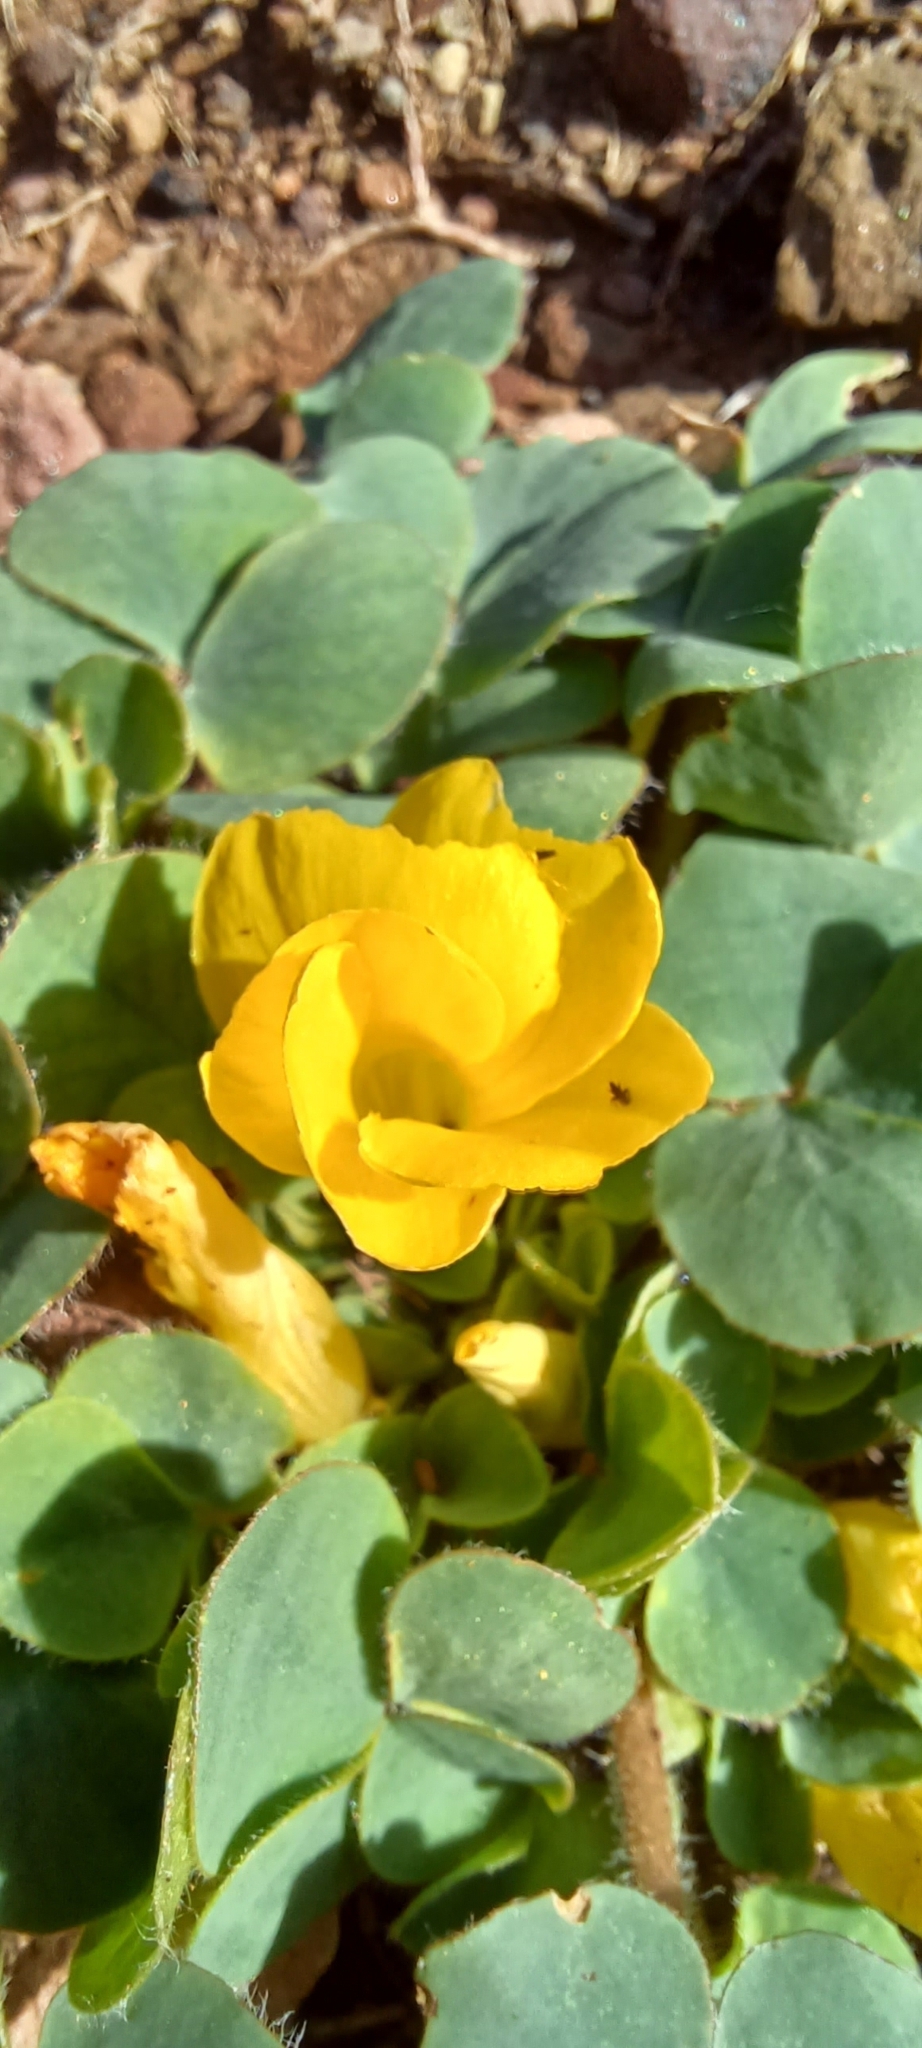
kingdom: Plantae
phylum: Tracheophyta
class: Magnoliopsida
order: Oxalidales
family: Oxalidaceae
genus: Oxalis
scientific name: Oxalis purpurea
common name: Purple woodsorrel
